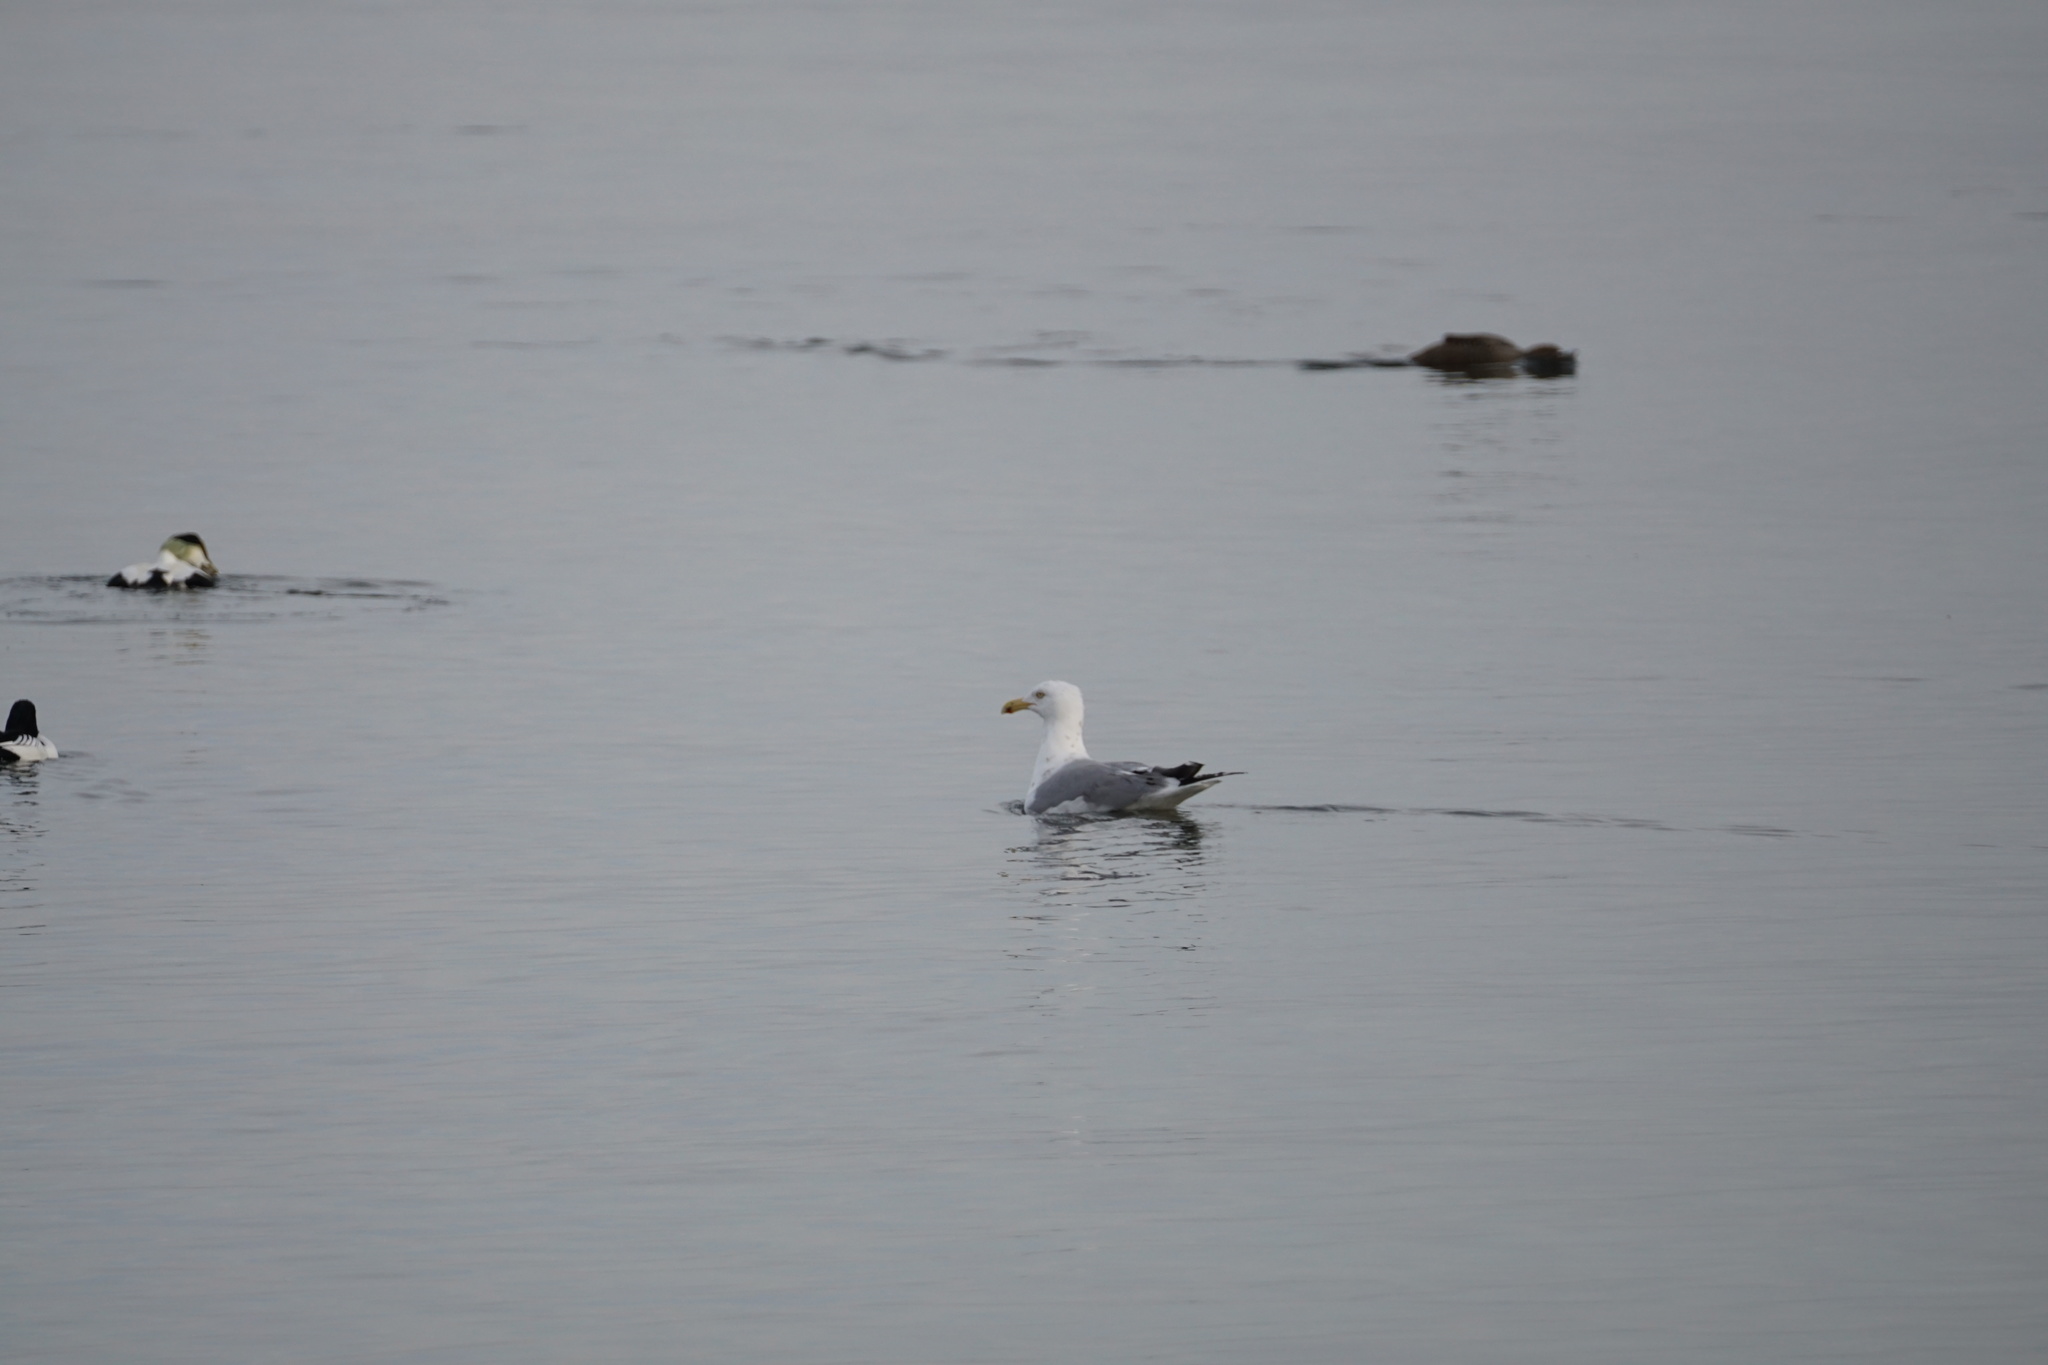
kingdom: Animalia
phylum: Chordata
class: Aves
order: Charadriiformes
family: Laridae
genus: Larus
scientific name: Larus argentatus
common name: Herring gull
